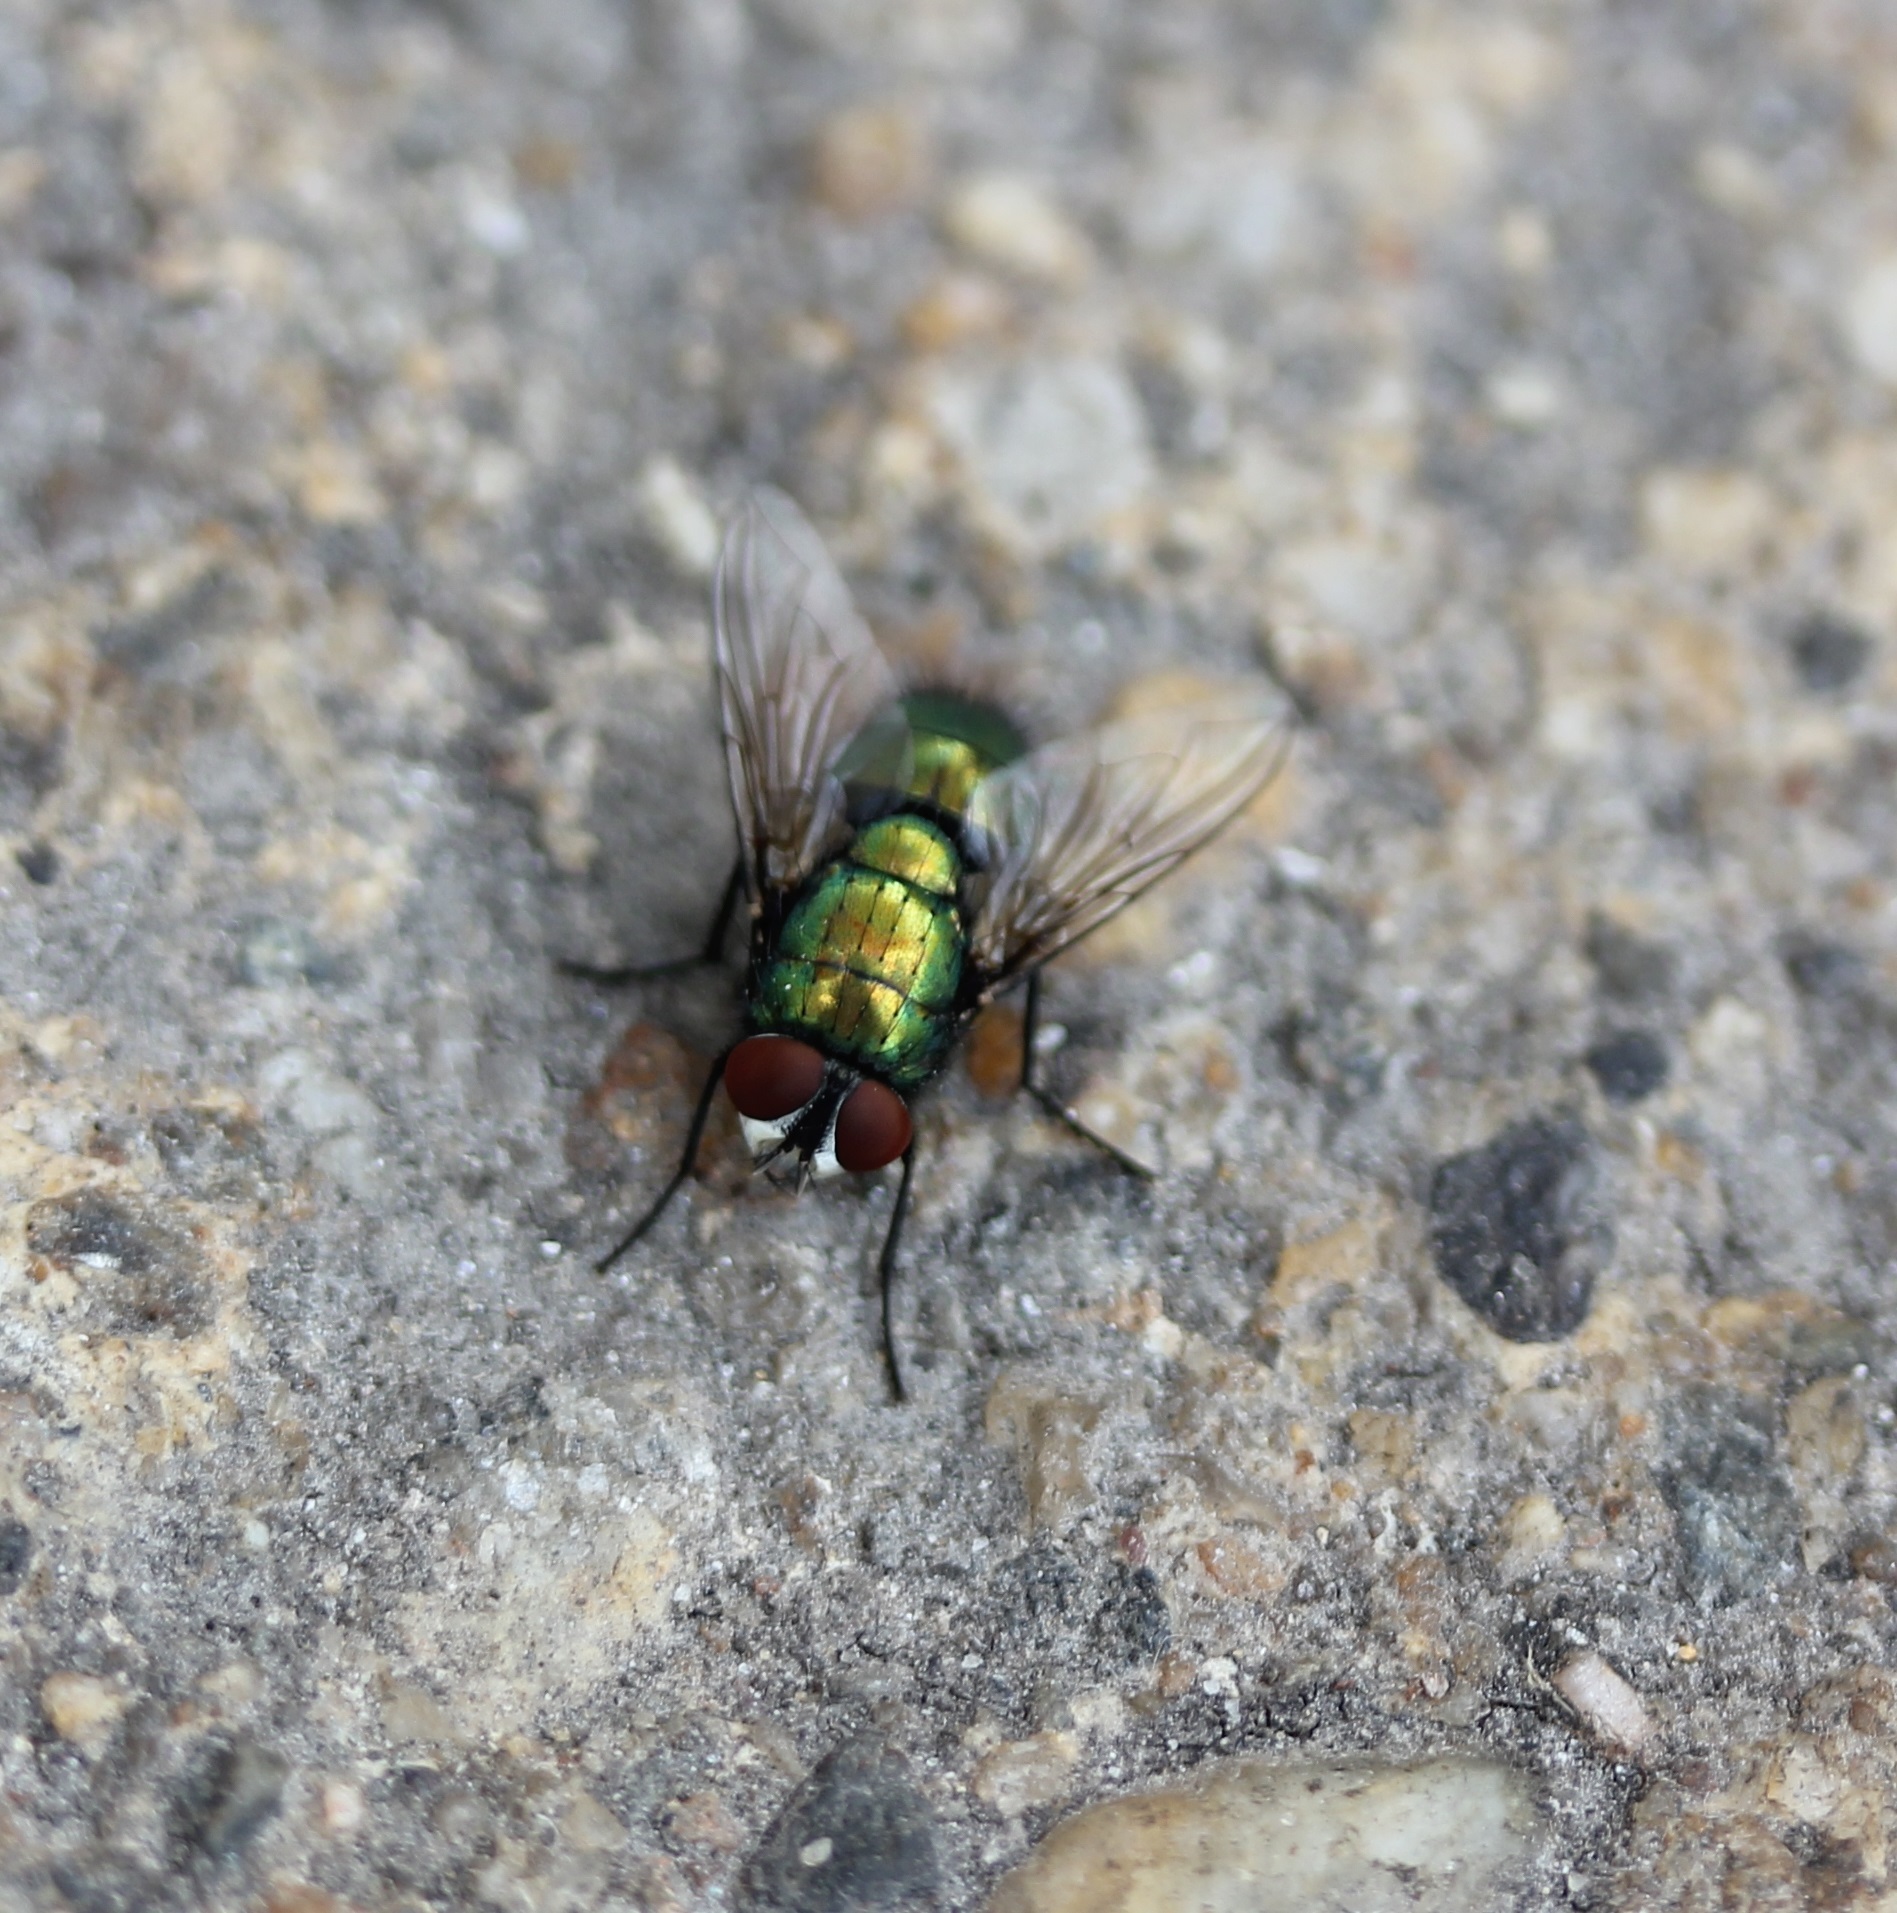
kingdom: Animalia
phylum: Arthropoda
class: Insecta
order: Diptera
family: Calliphoridae
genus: Lucilia
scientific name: Lucilia sericata
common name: Blow fly
